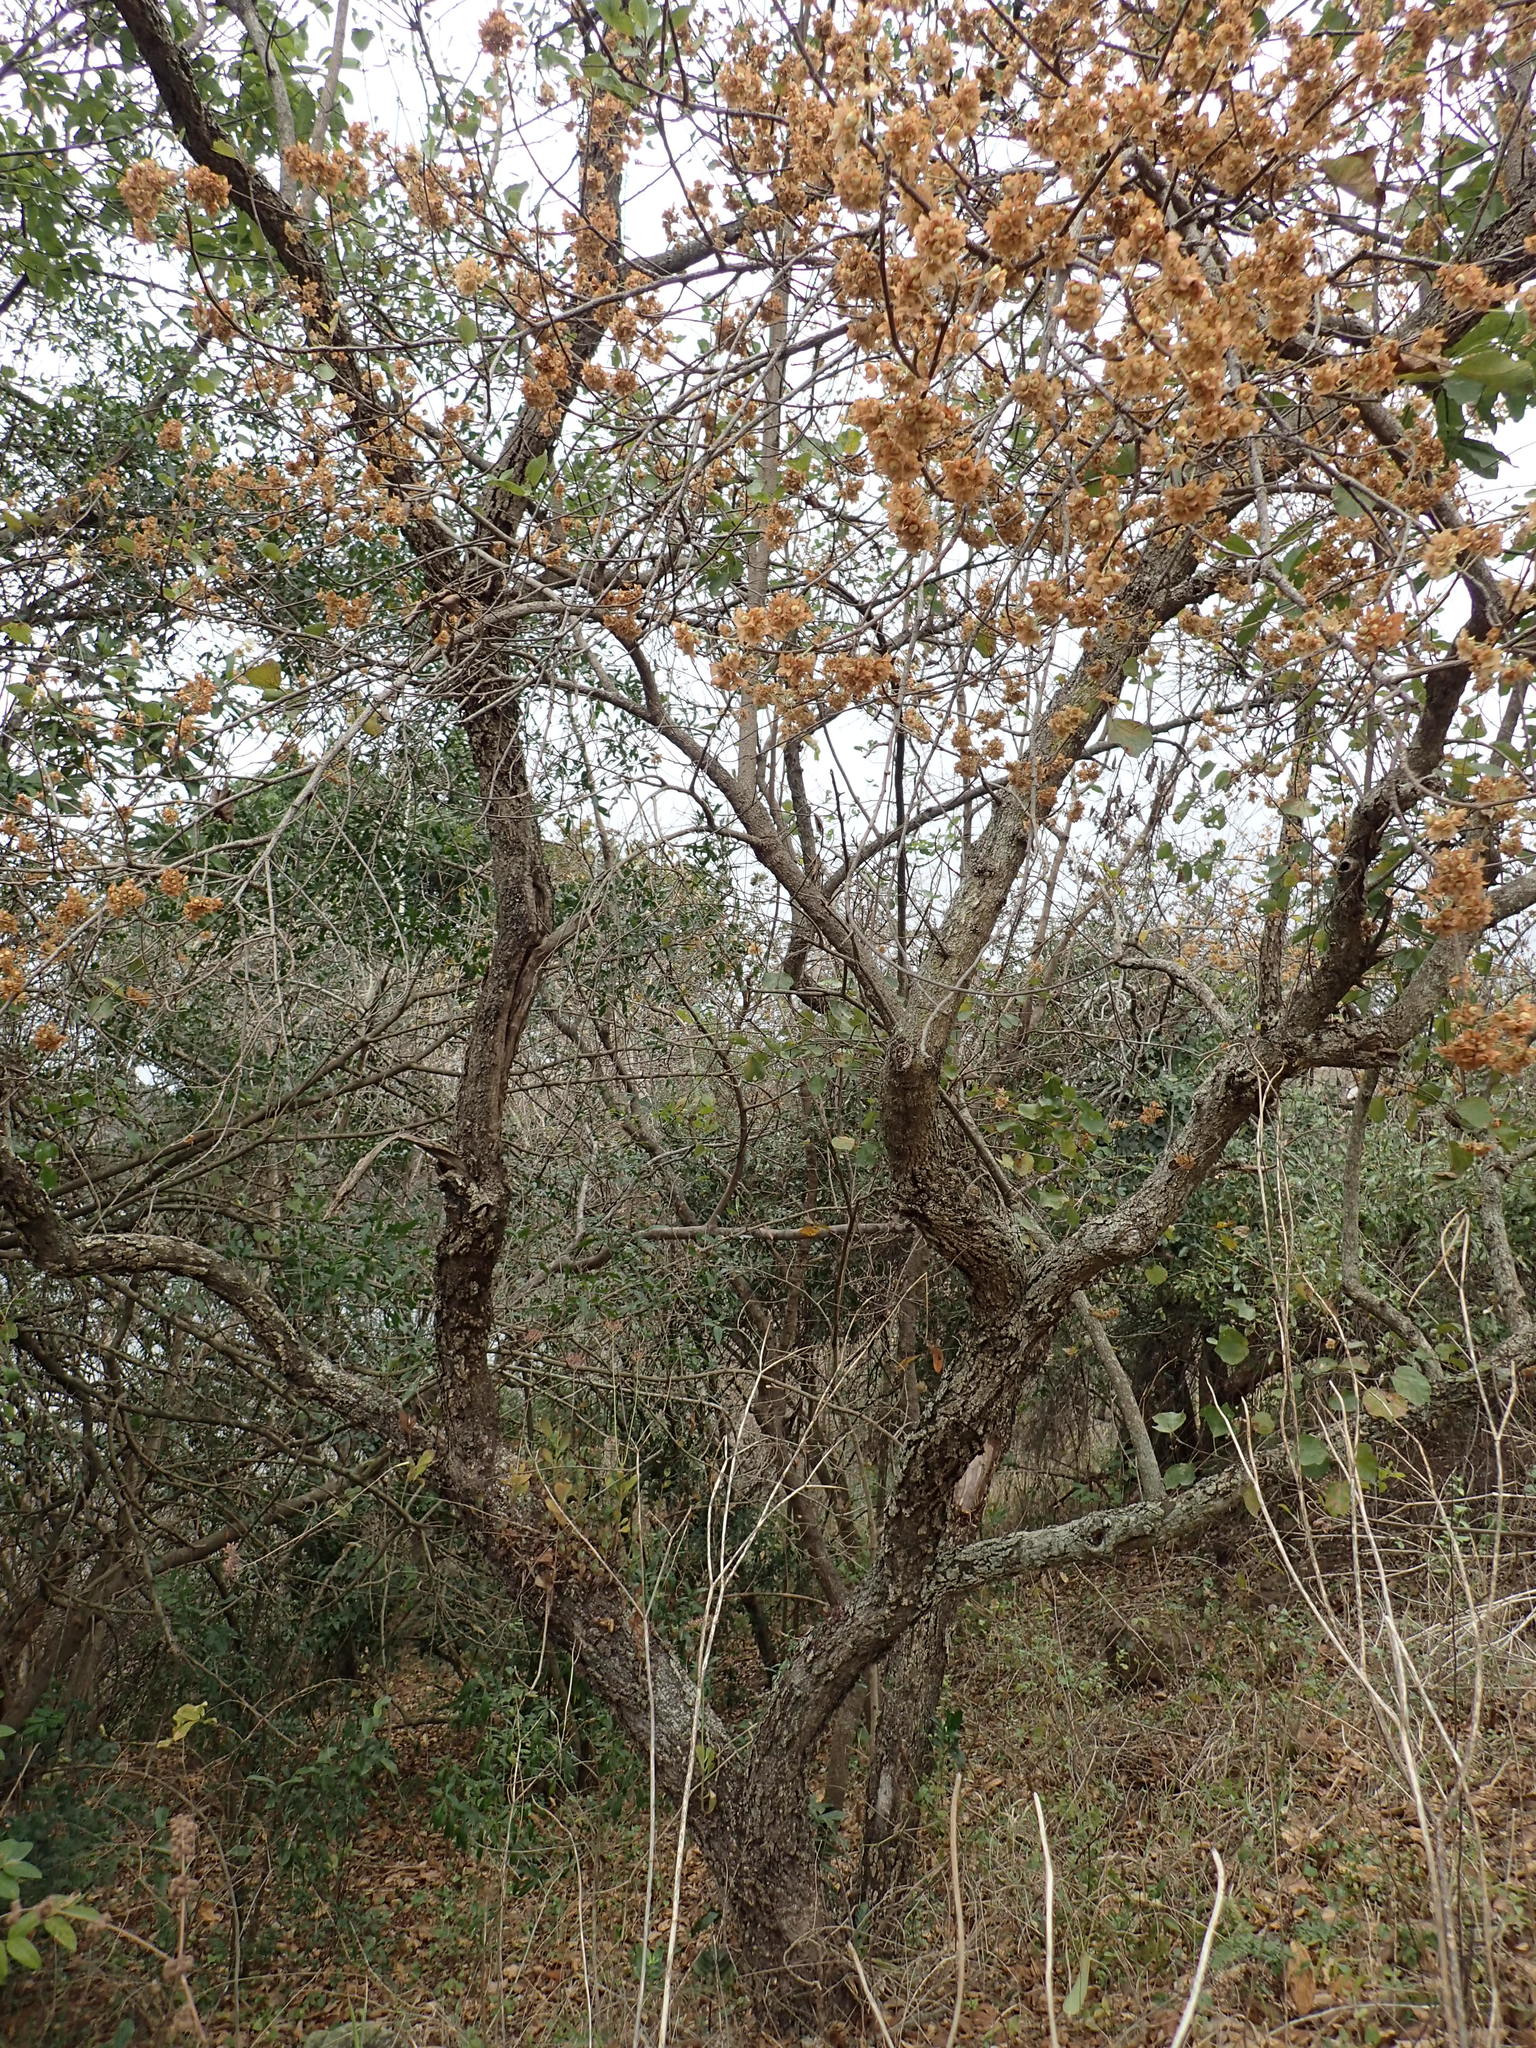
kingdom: Plantae
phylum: Tracheophyta
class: Magnoliopsida
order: Malvales
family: Malvaceae
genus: Dombeya
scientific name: Dombeya rotundifolia
